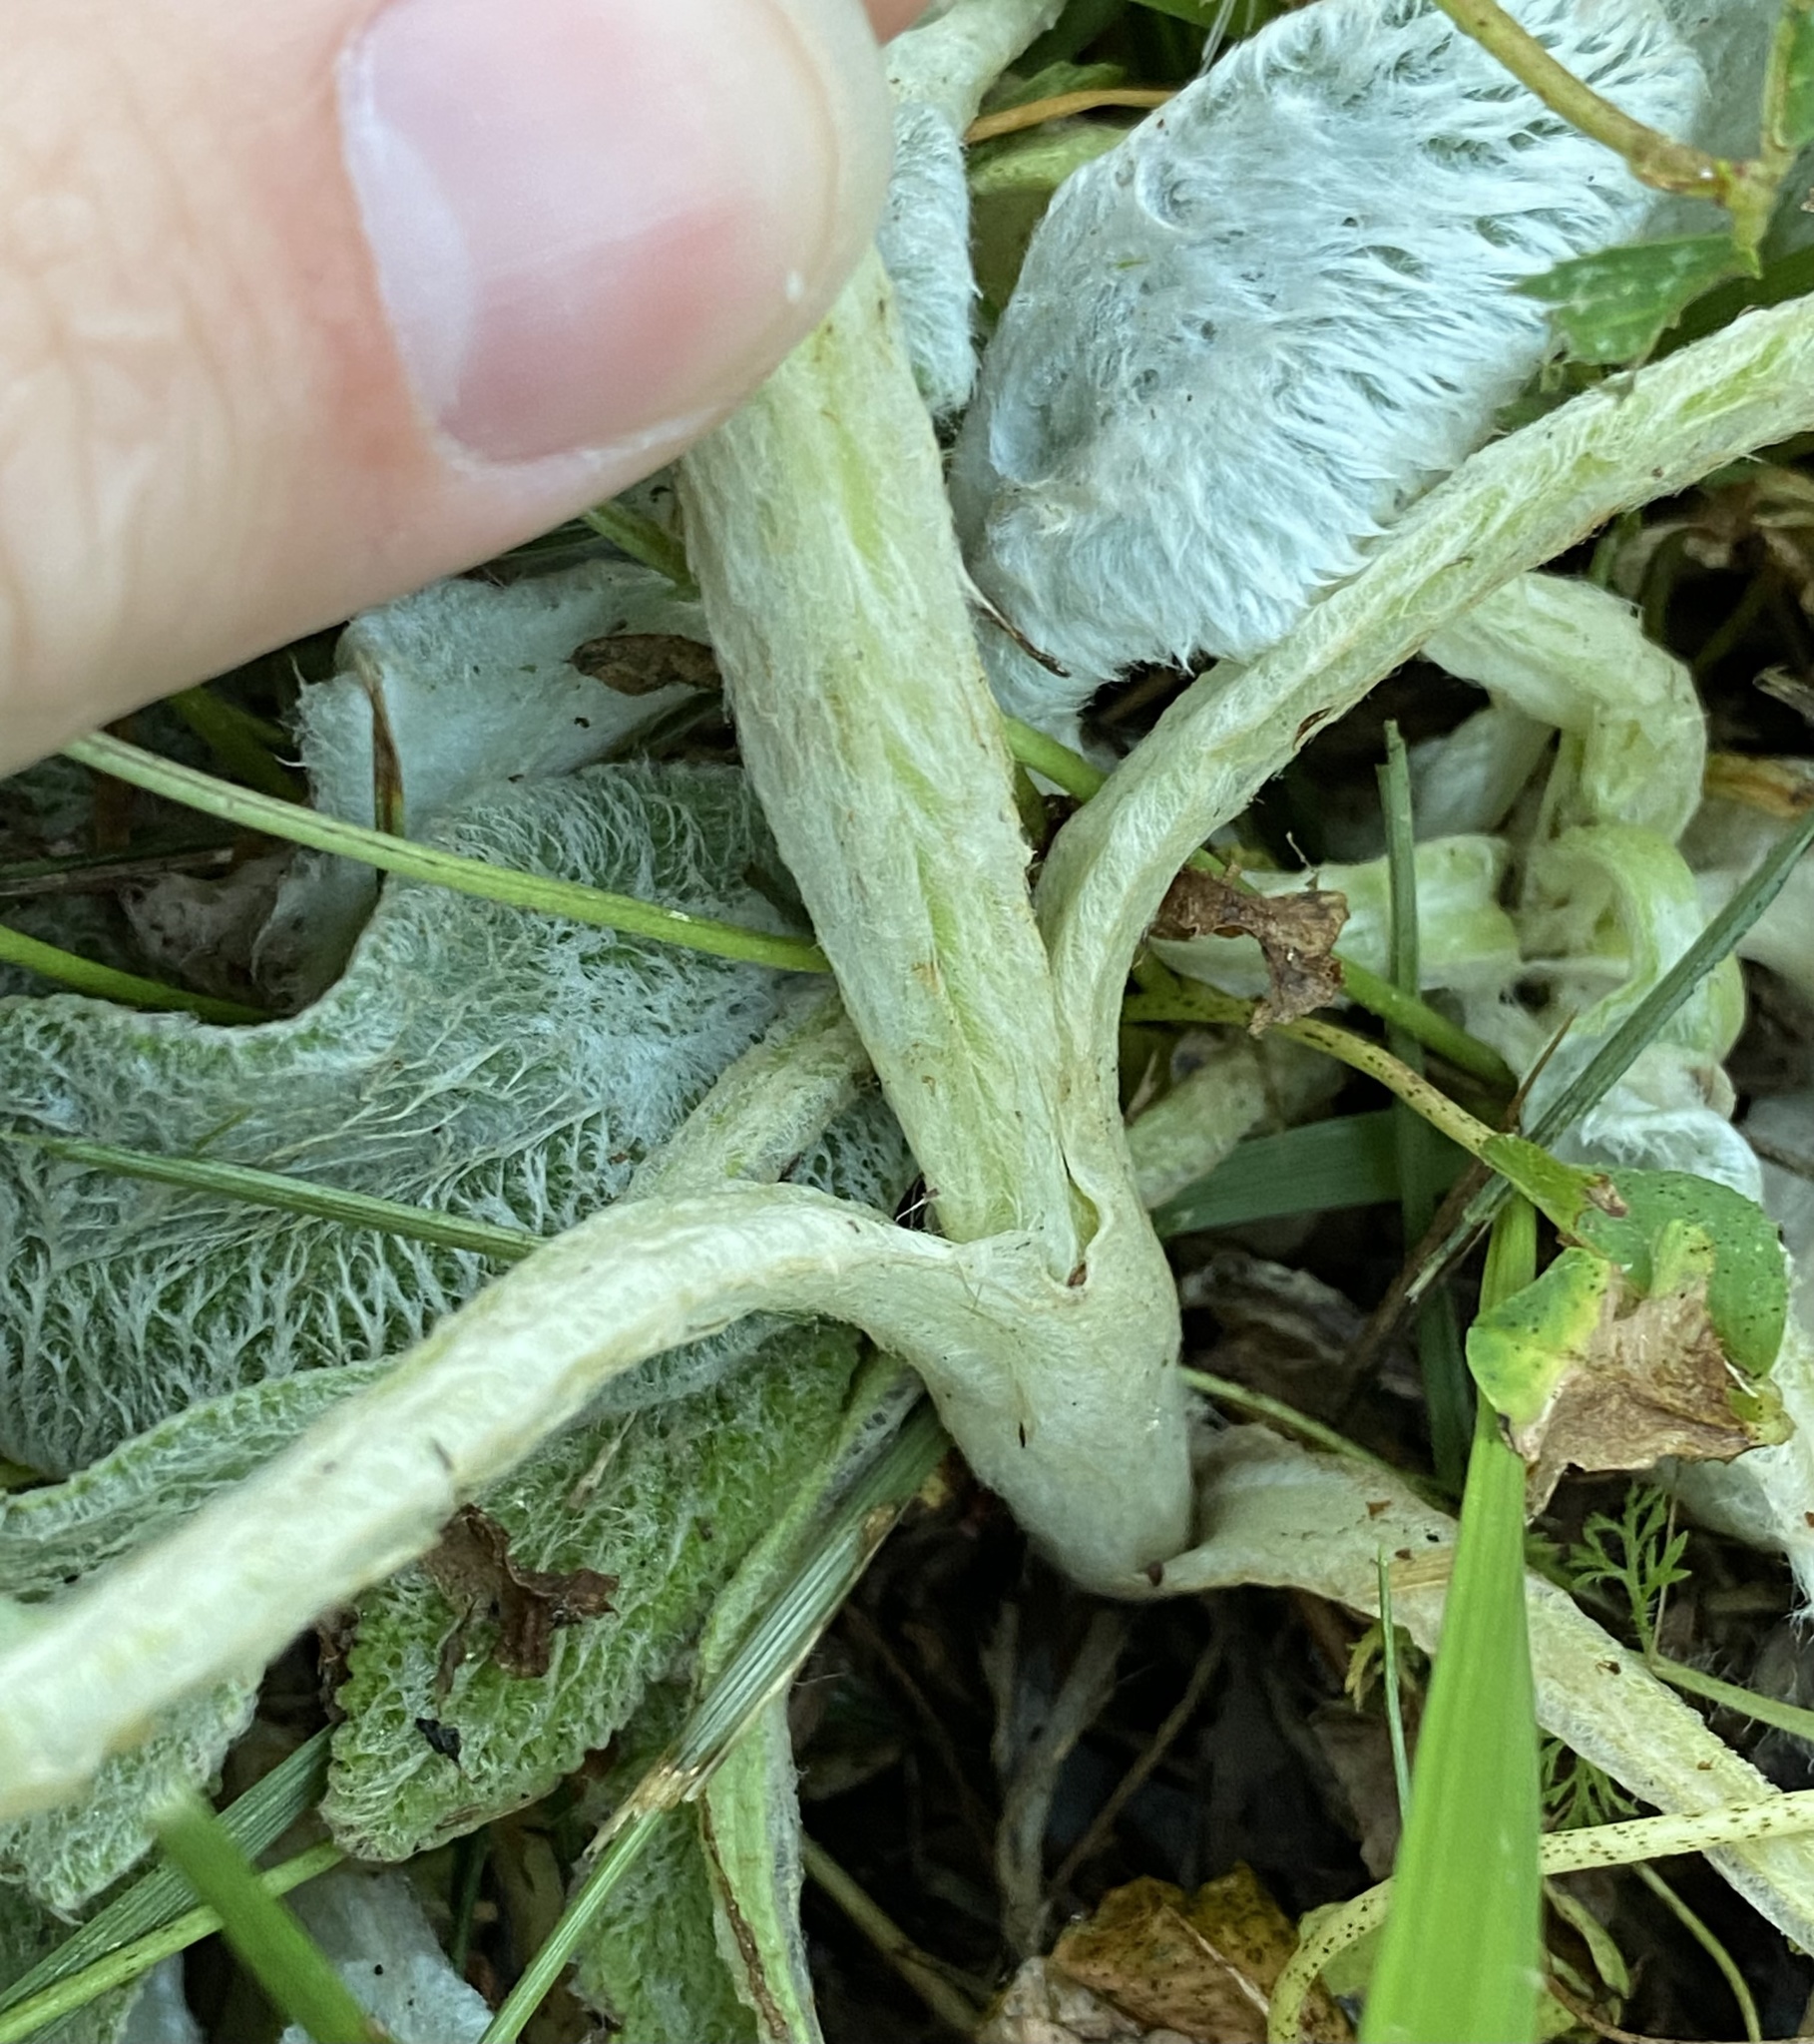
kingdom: Plantae
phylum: Tracheophyta
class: Magnoliopsida
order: Lamiales
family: Lamiaceae
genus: Stachys
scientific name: Stachys byzantina
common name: Lamb's-ear
